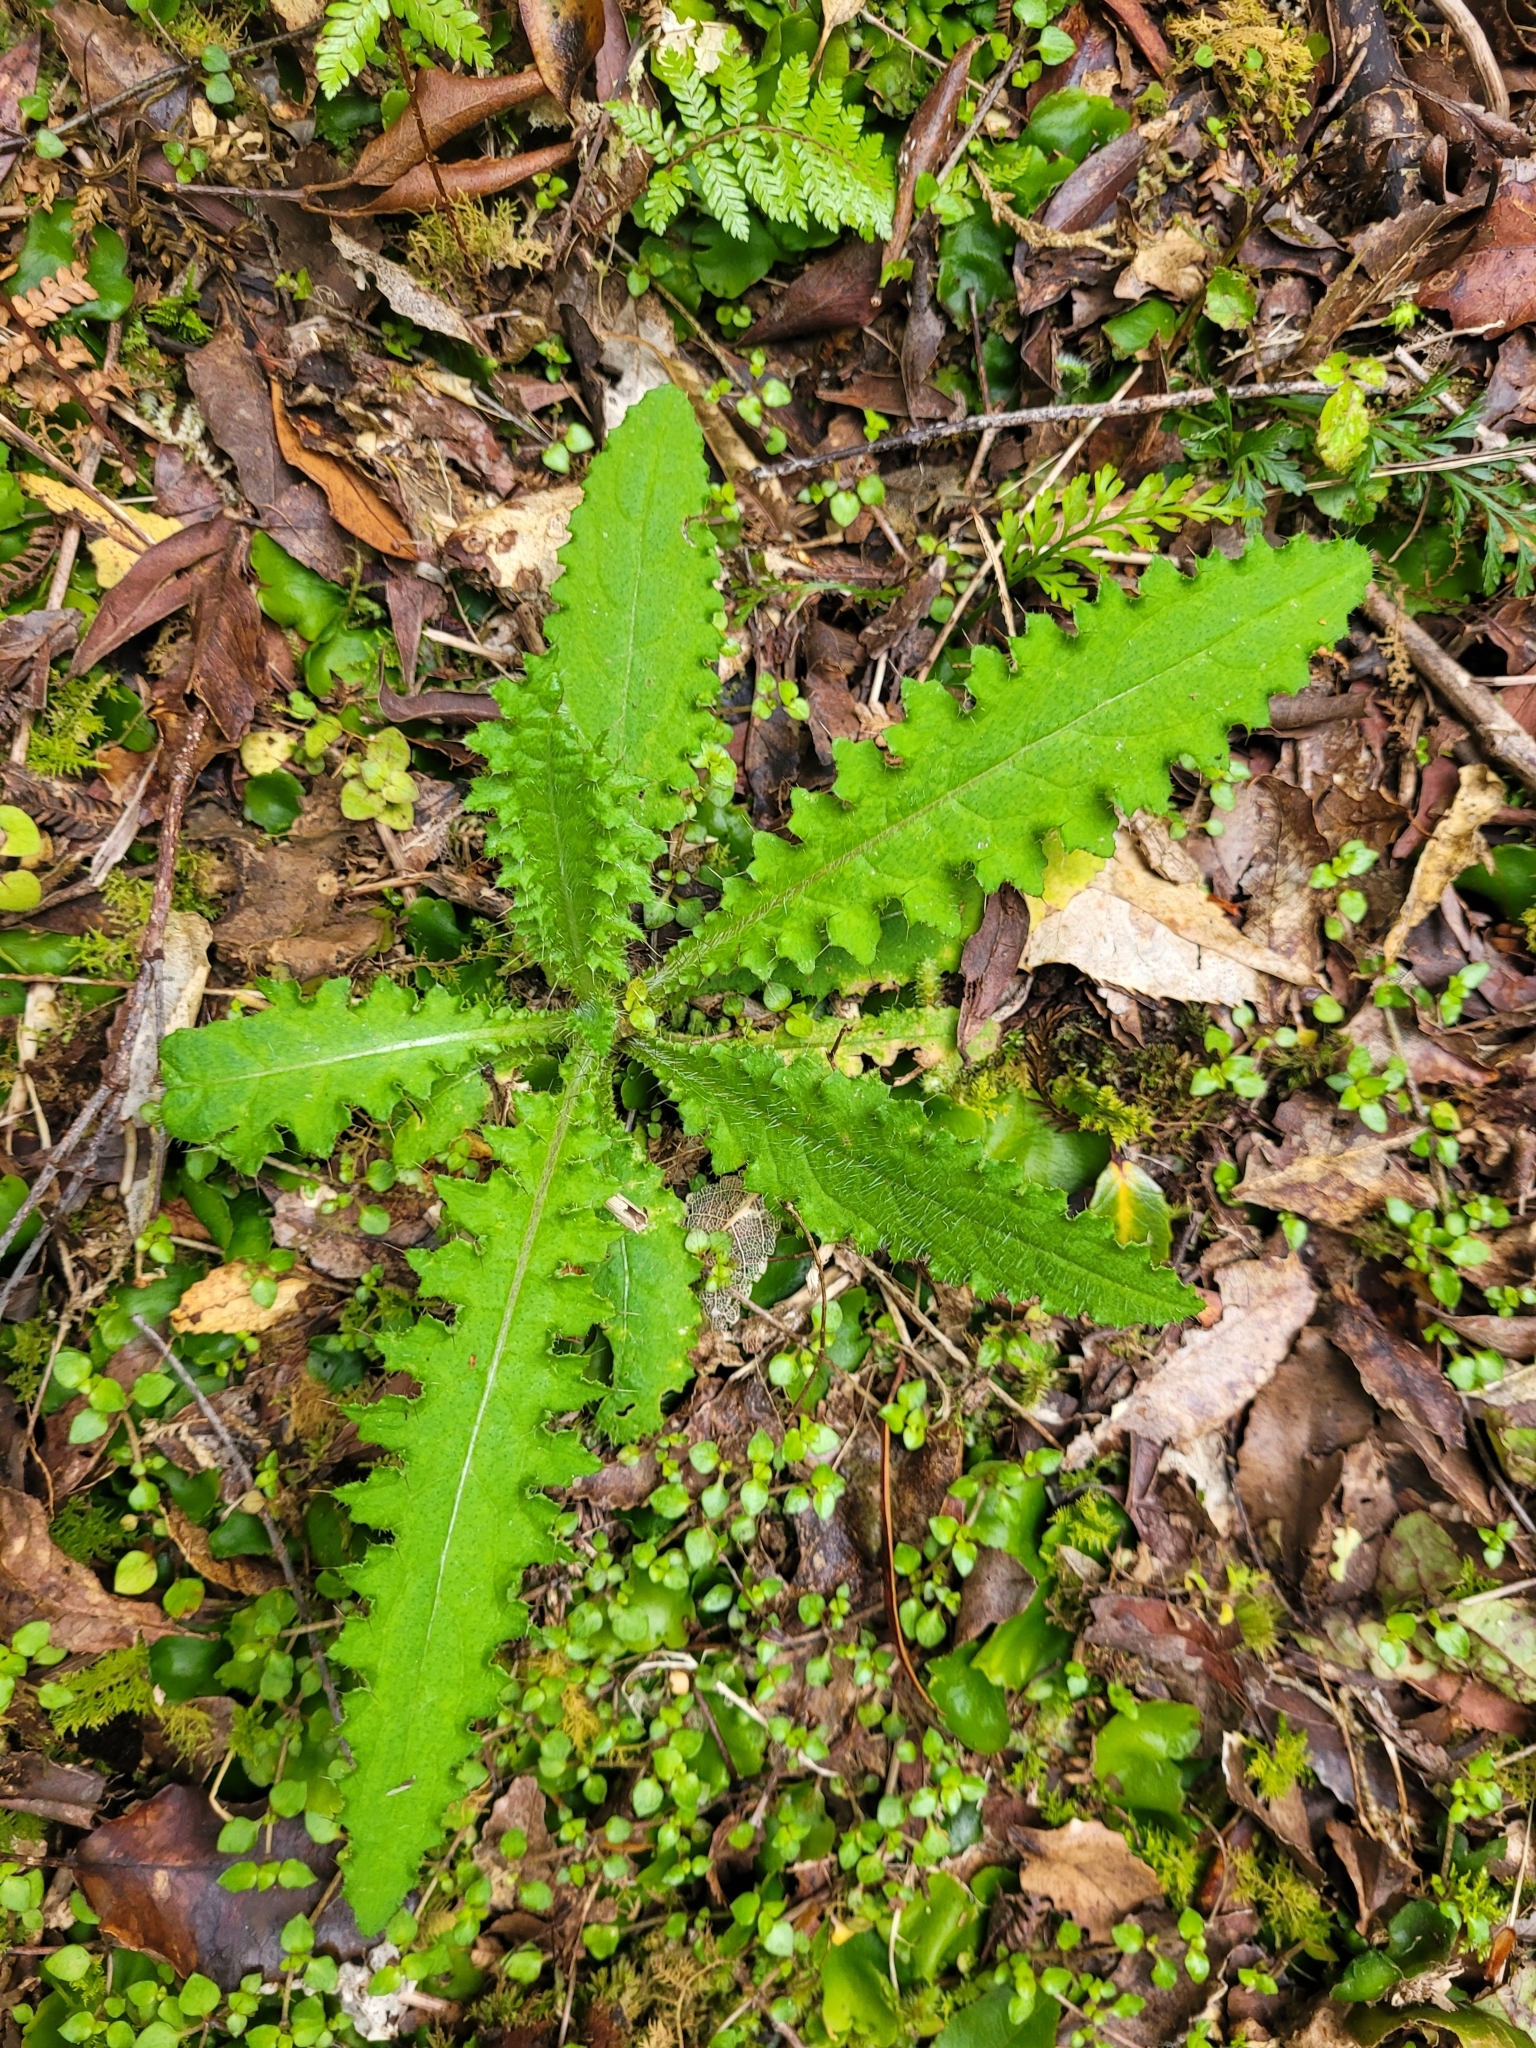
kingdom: Plantae
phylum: Tracheophyta
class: Magnoliopsida
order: Asterales
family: Asteraceae
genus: Cirsium
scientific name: Cirsium palustre
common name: Marsh thistle
